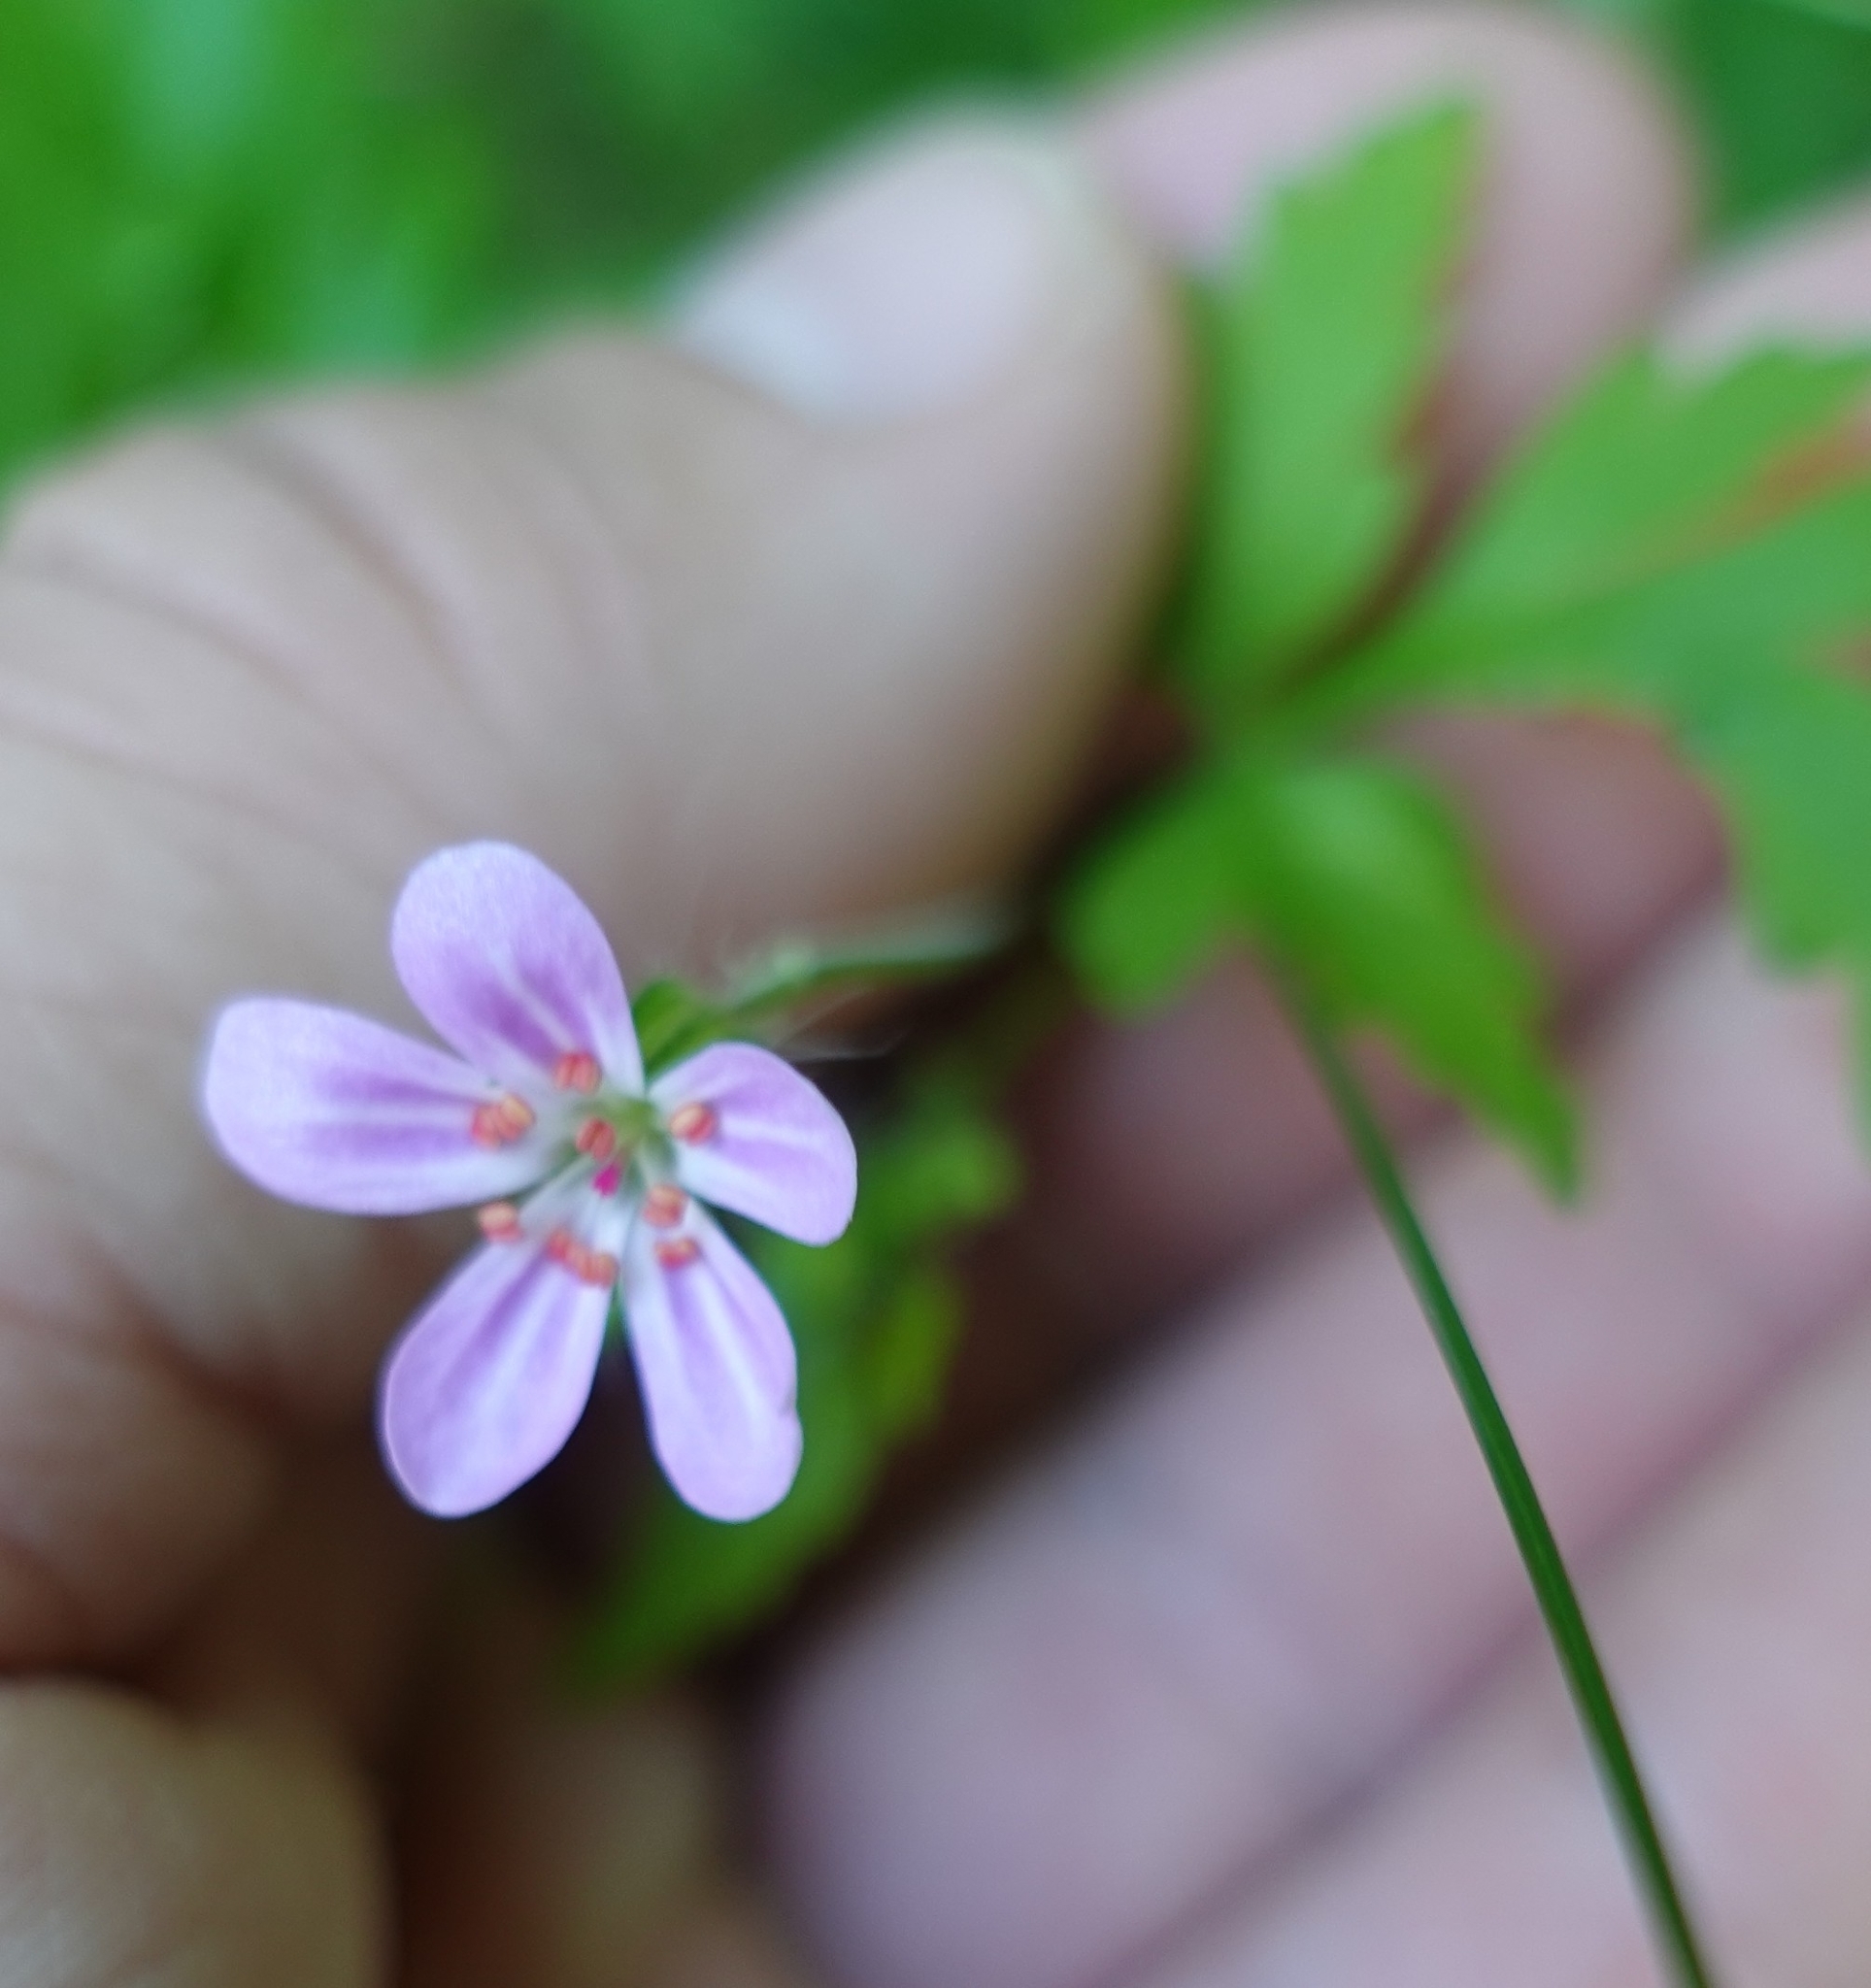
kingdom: Plantae
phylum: Tracheophyta
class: Magnoliopsida
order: Geraniales
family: Geraniaceae
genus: Geranium
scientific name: Geranium robertianum
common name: Herb-robert
